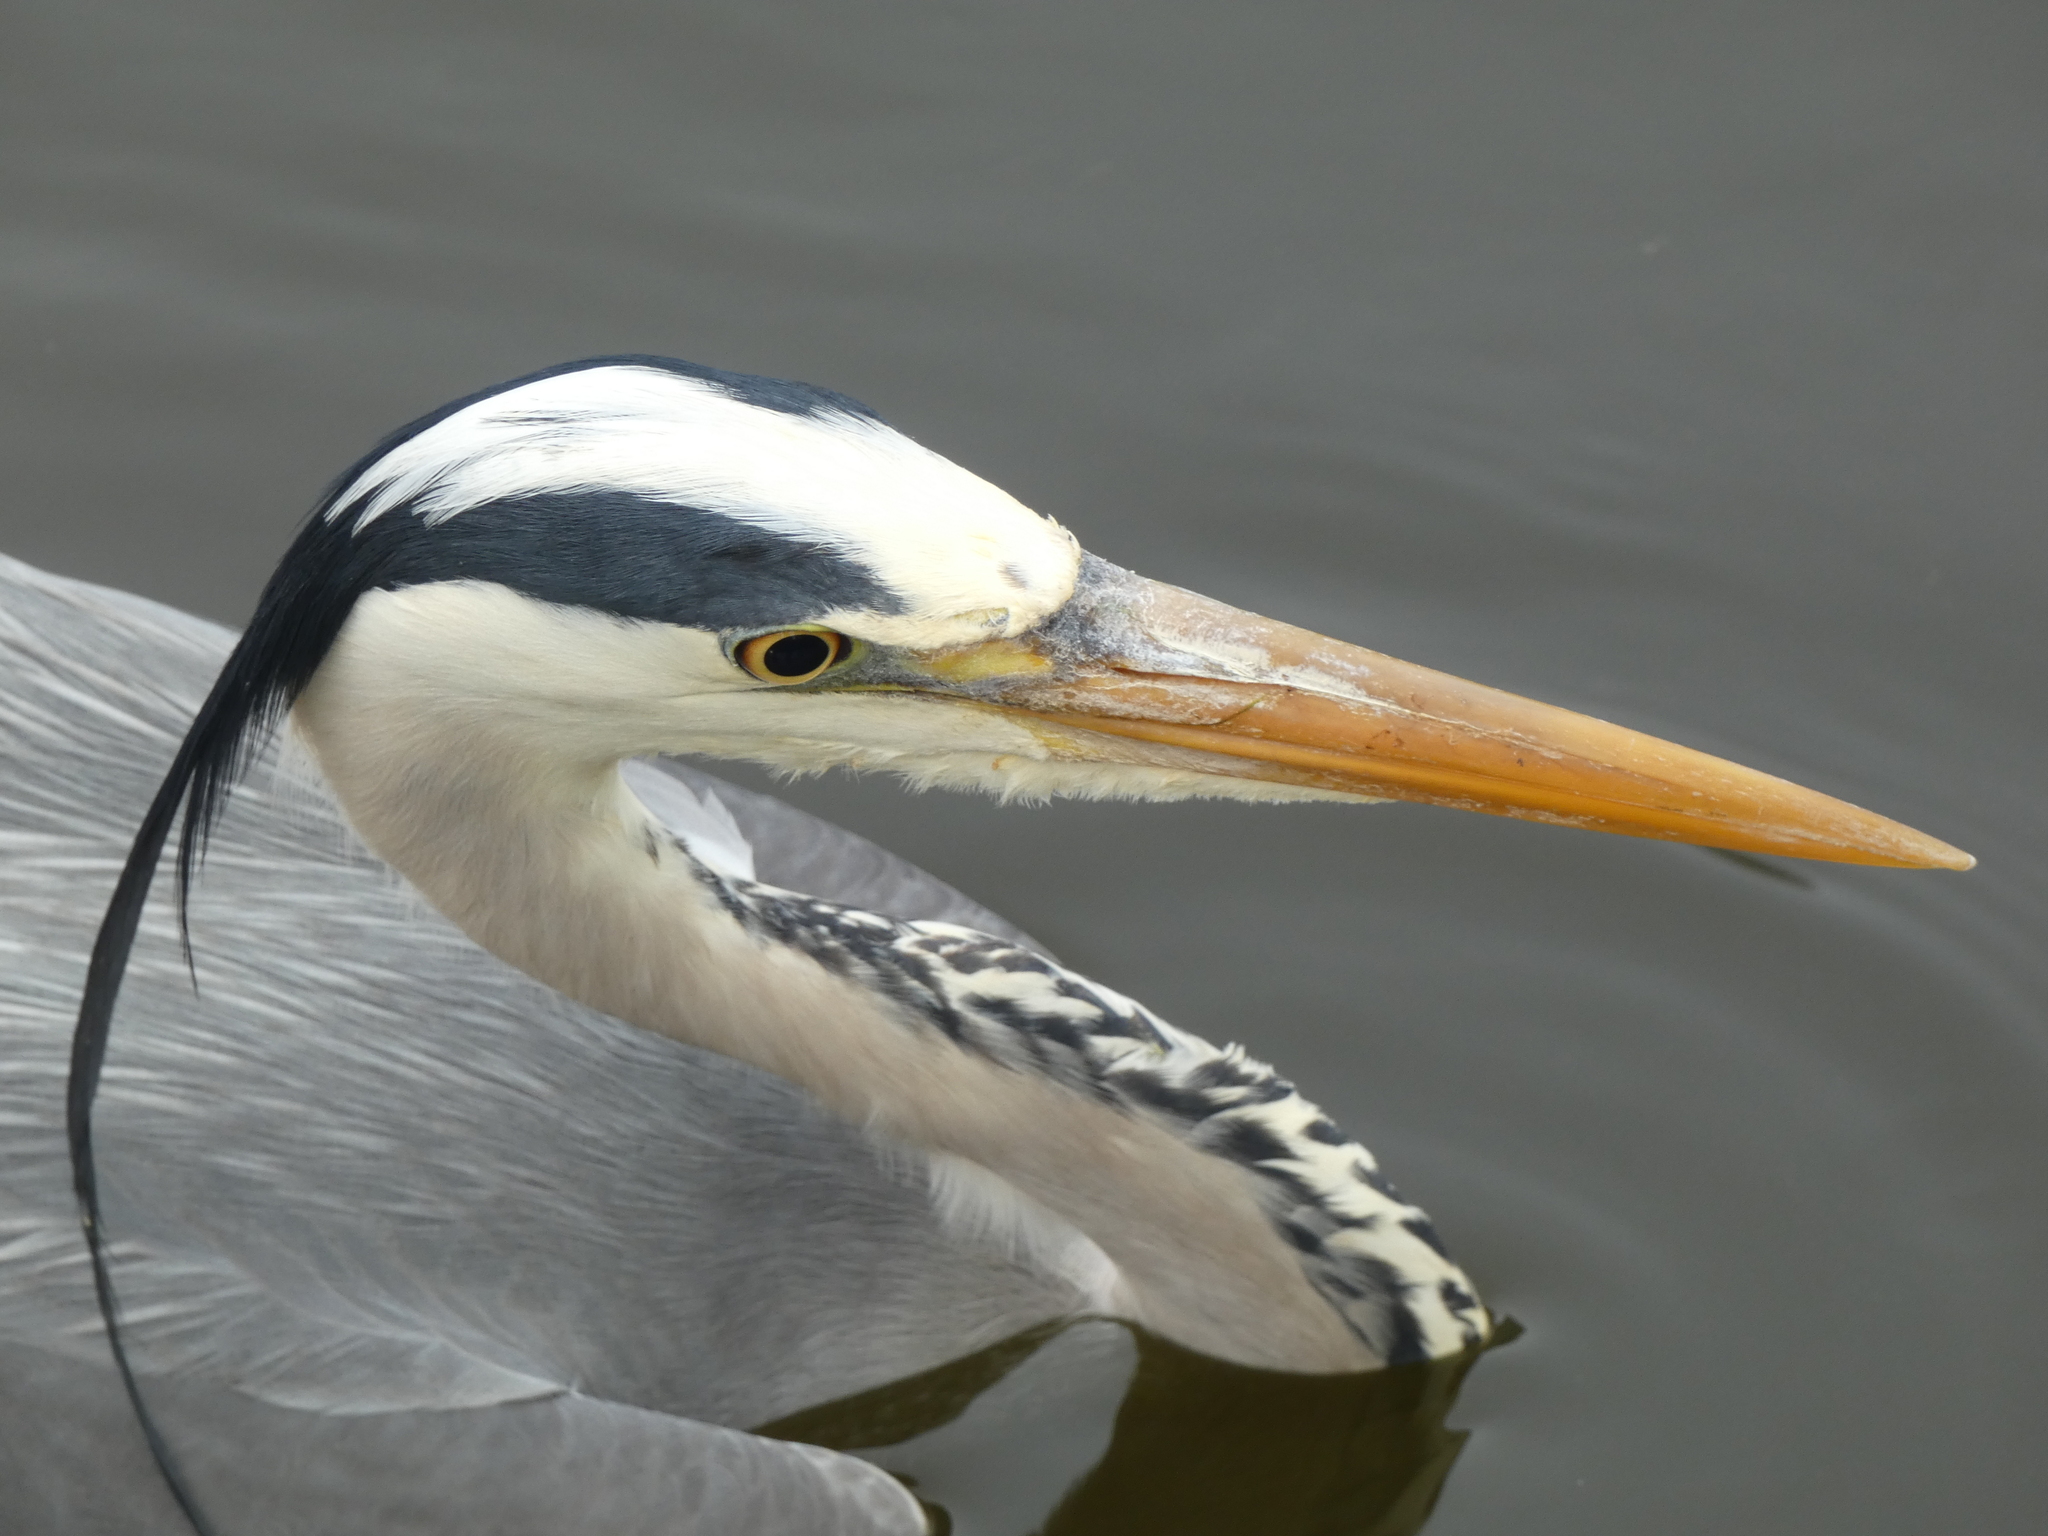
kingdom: Animalia
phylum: Chordata
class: Aves
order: Pelecaniformes
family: Ardeidae
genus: Ardea
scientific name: Ardea cinerea
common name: Grey heron
